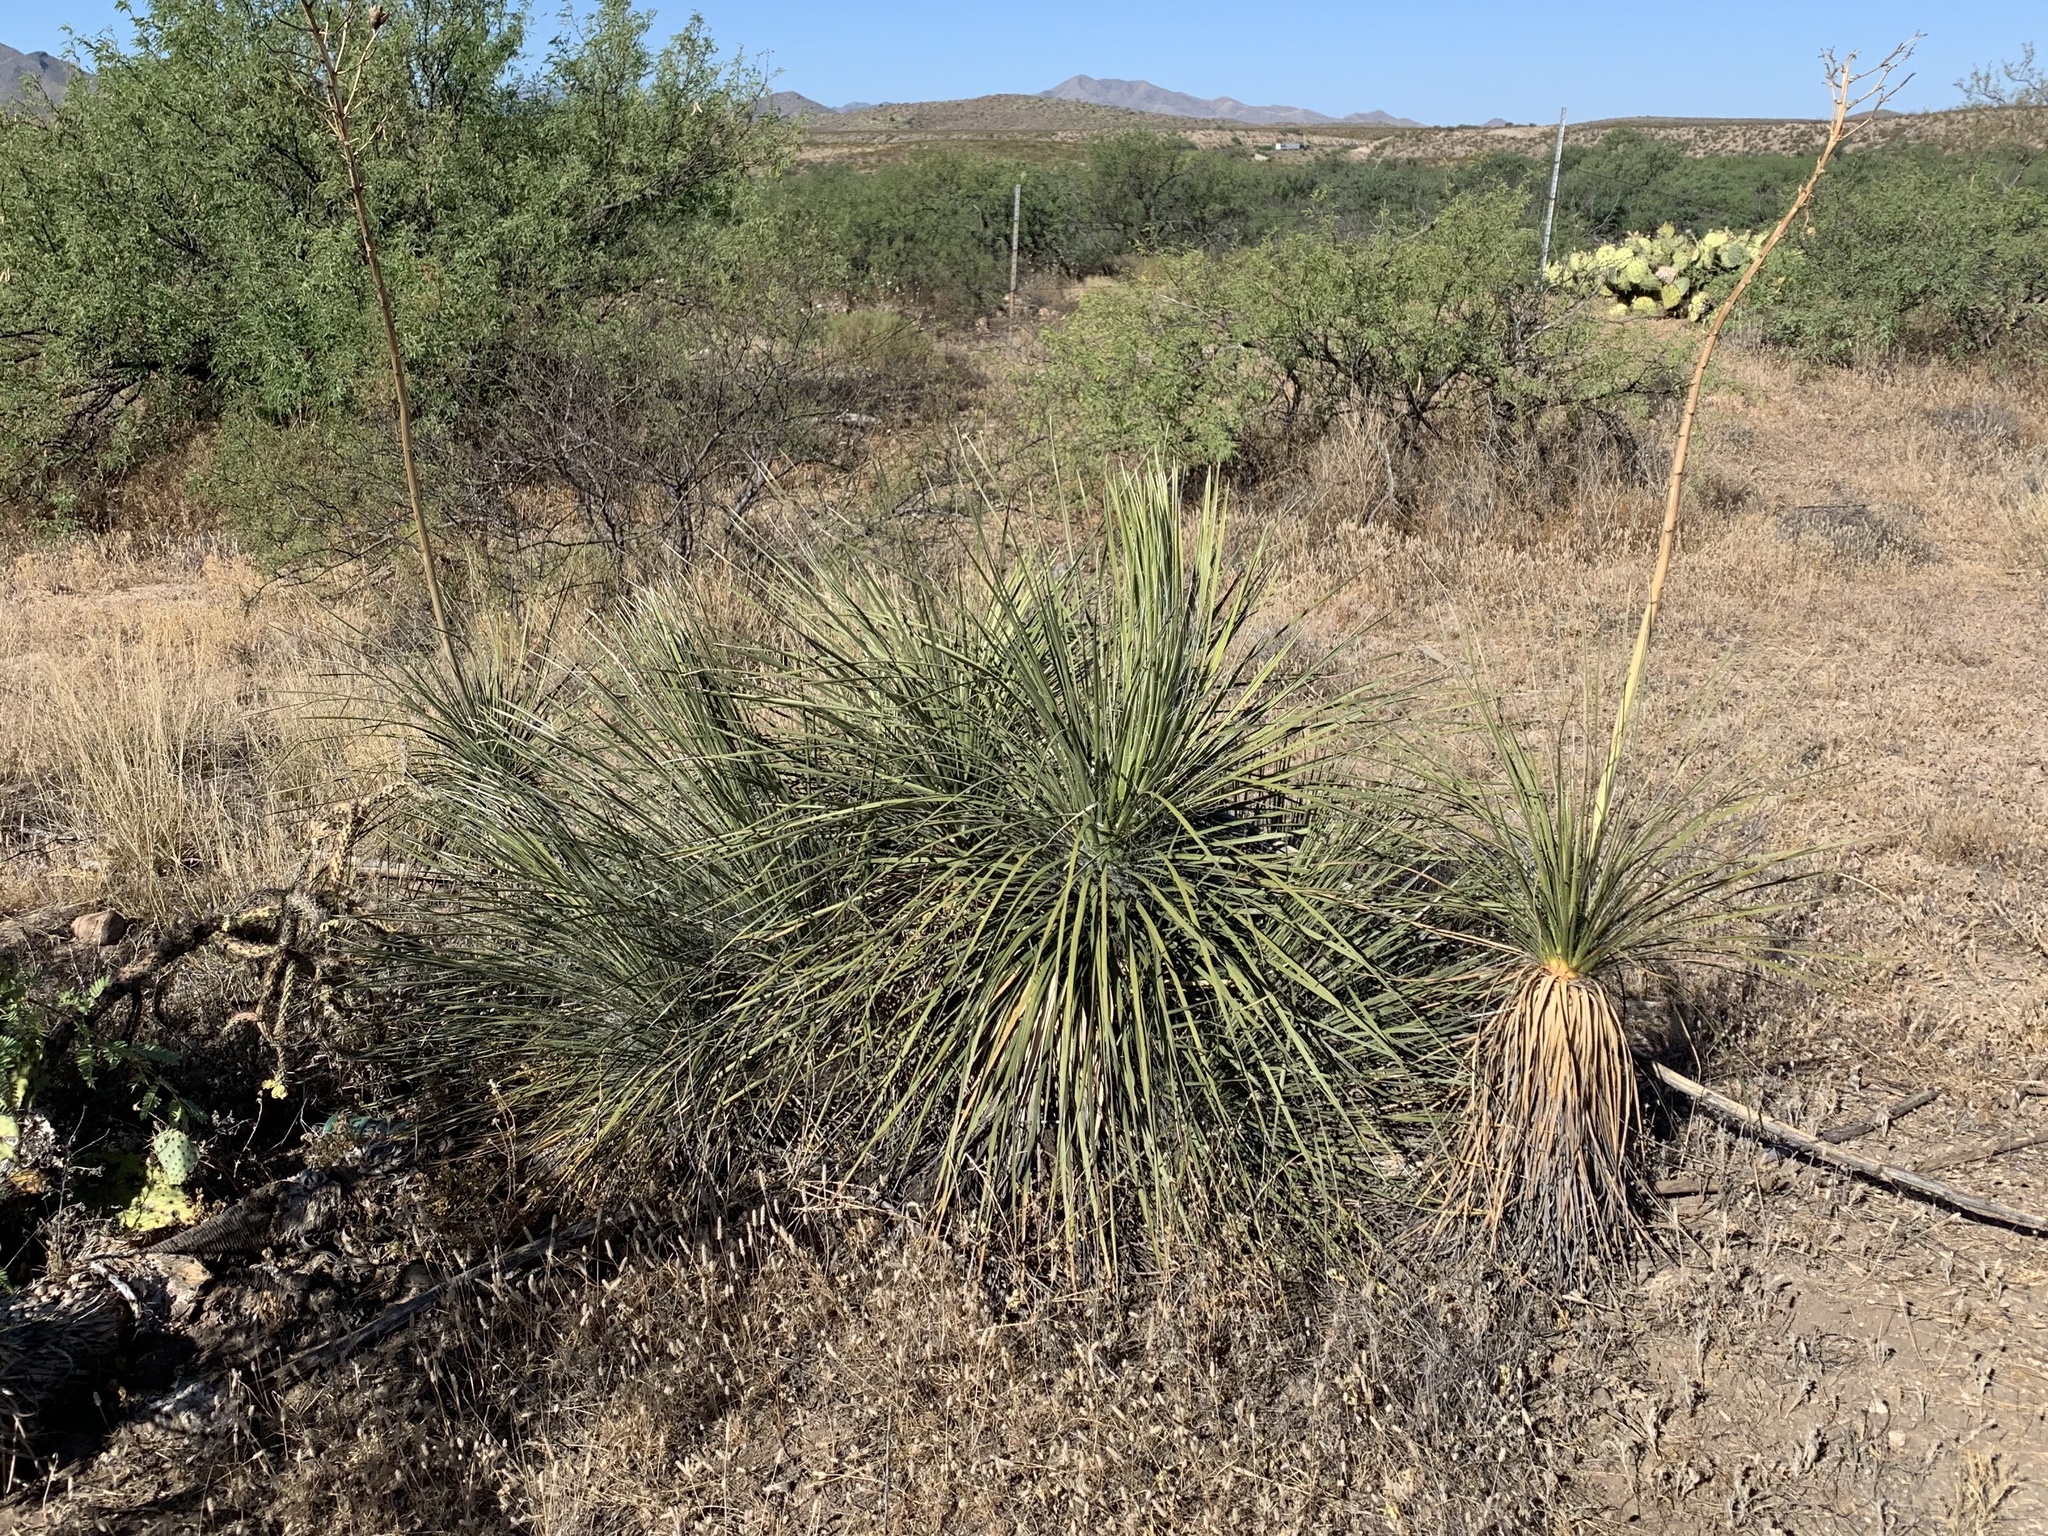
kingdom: Plantae
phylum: Tracheophyta
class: Liliopsida
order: Asparagales
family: Asparagaceae
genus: Yucca
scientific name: Yucca elata
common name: Palmella
